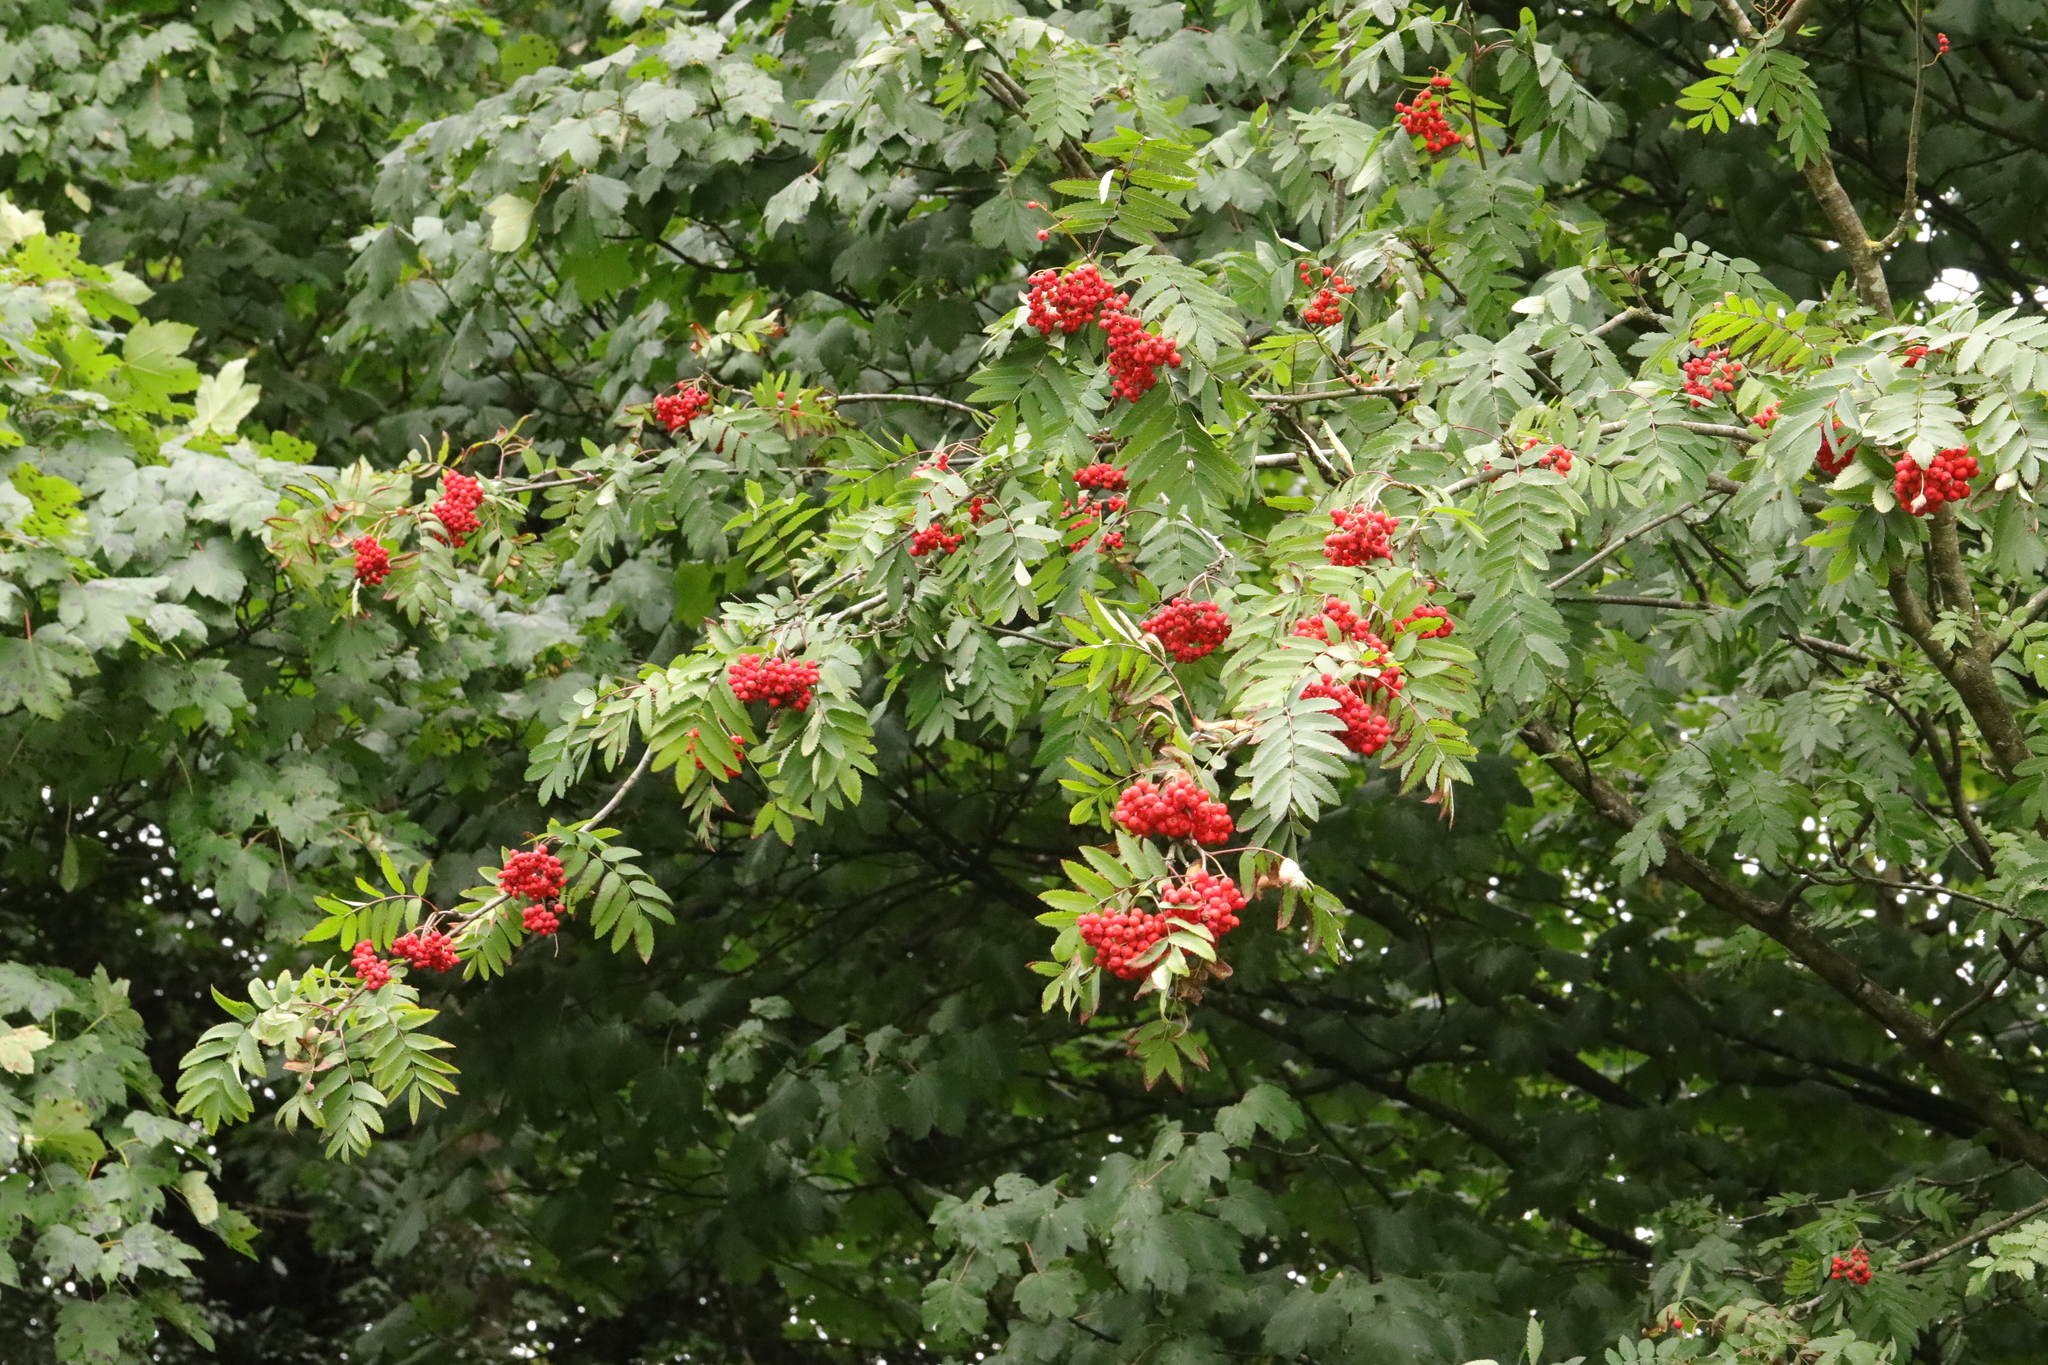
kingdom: Plantae
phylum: Tracheophyta
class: Magnoliopsida
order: Rosales
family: Rosaceae
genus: Sorbus
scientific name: Sorbus aucuparia
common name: Rowan
